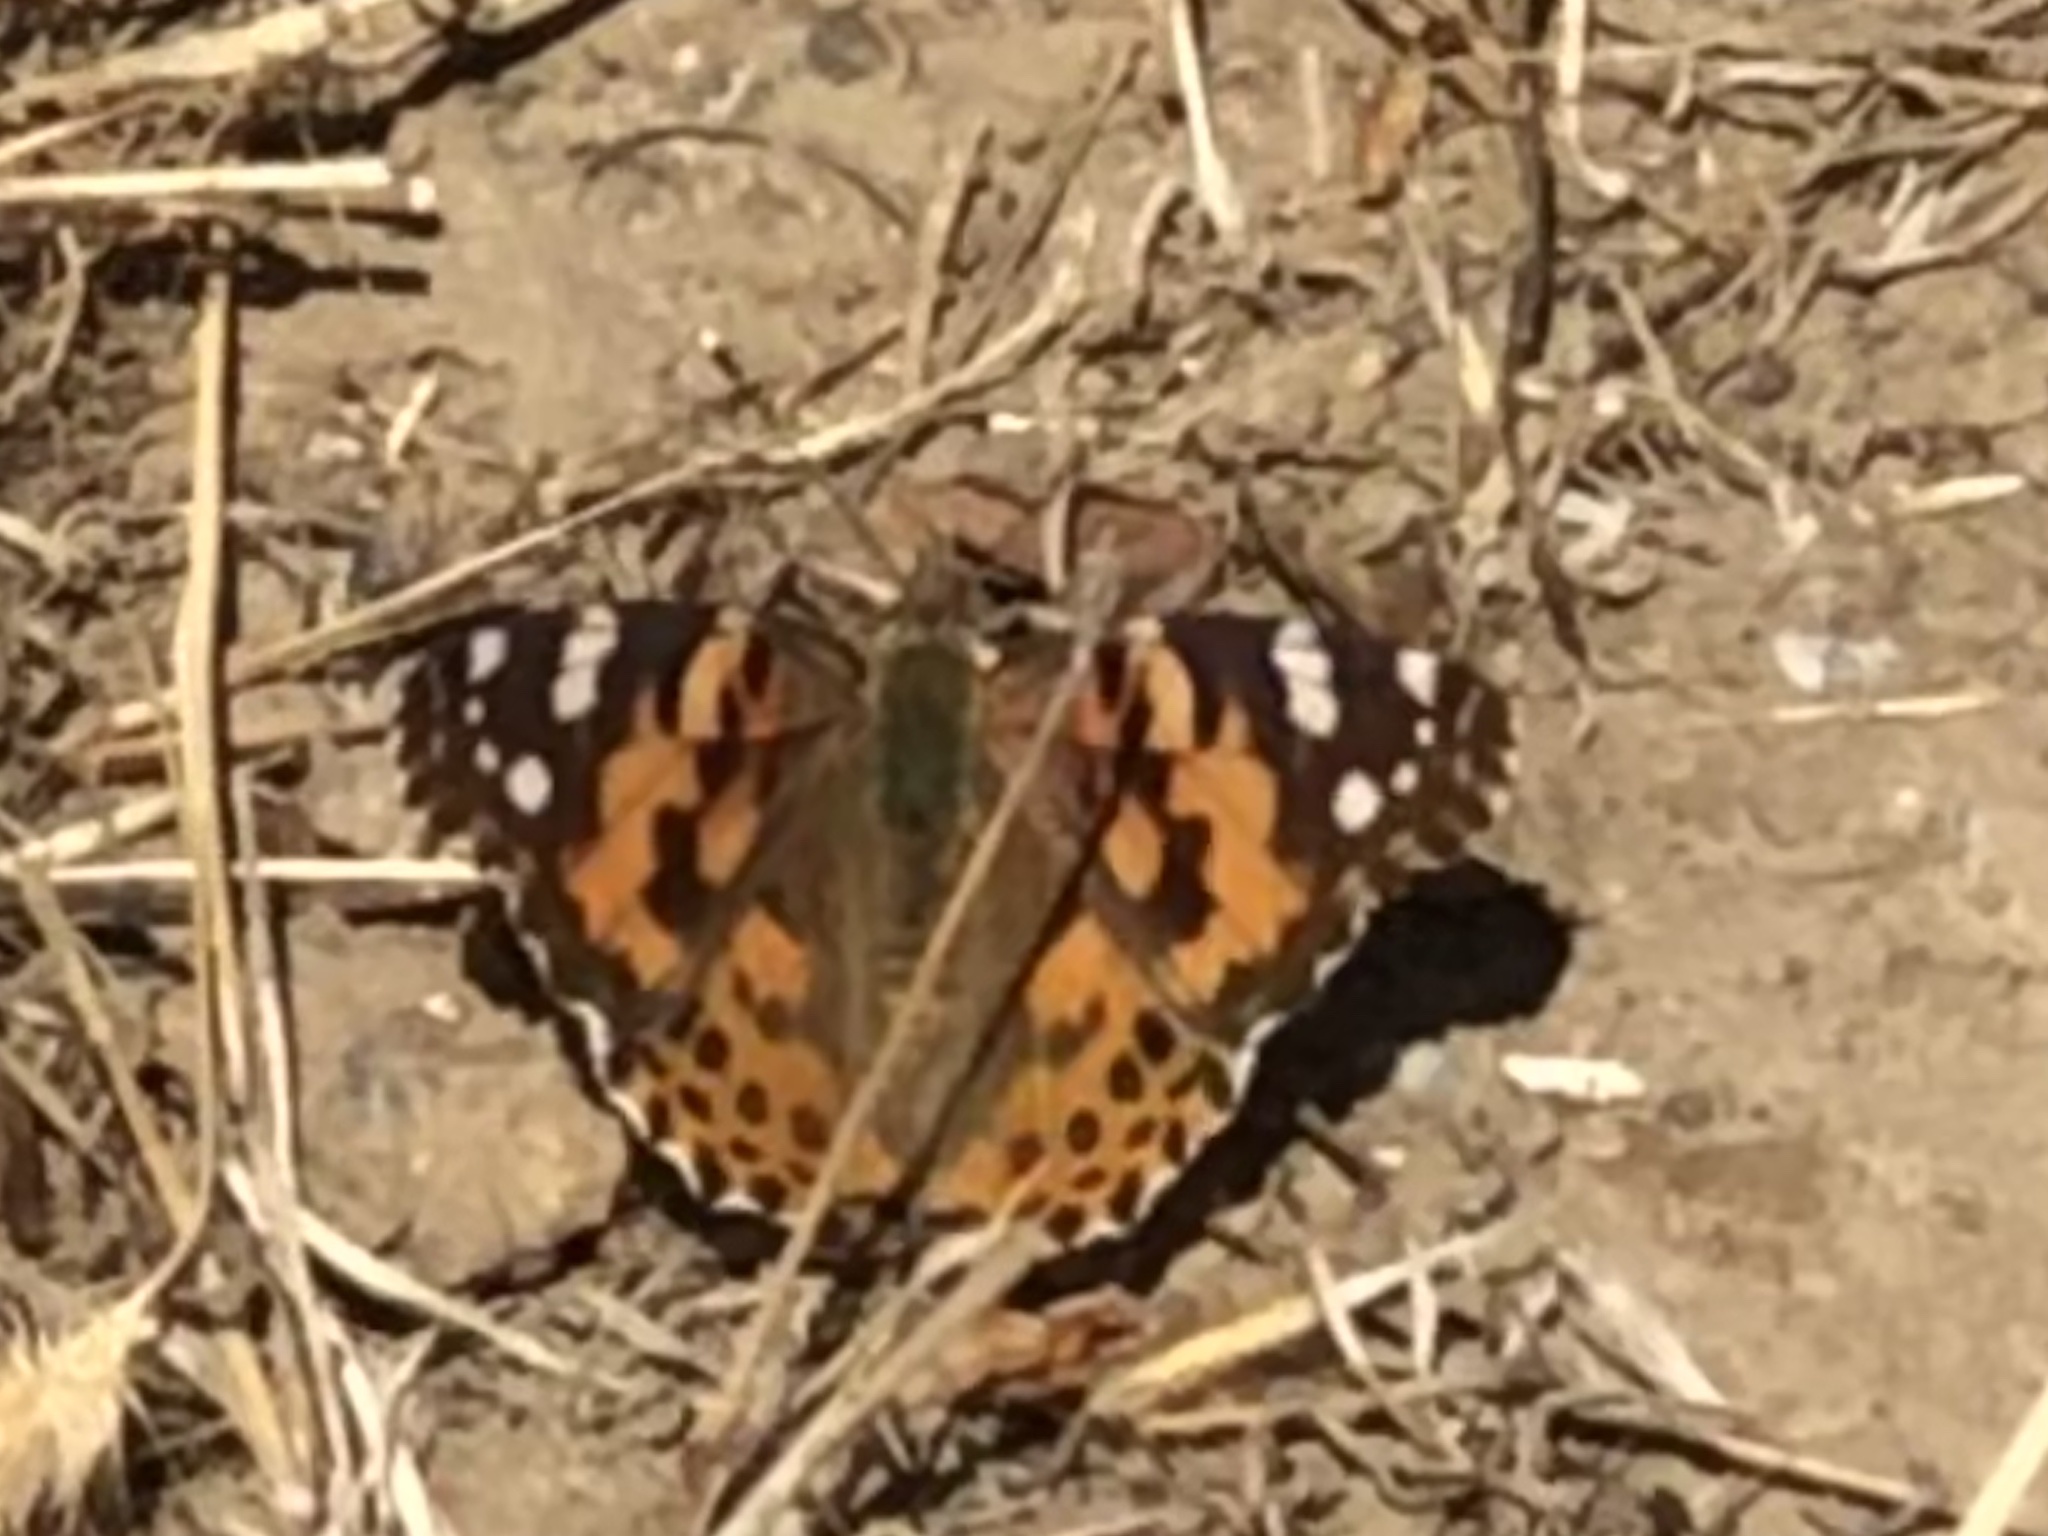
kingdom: Animalia
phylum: Arthropoda
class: Insecta
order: Lepidoptera
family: Nymphalidae
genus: Vanessa
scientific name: Vanessa cardui
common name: Painted lady
